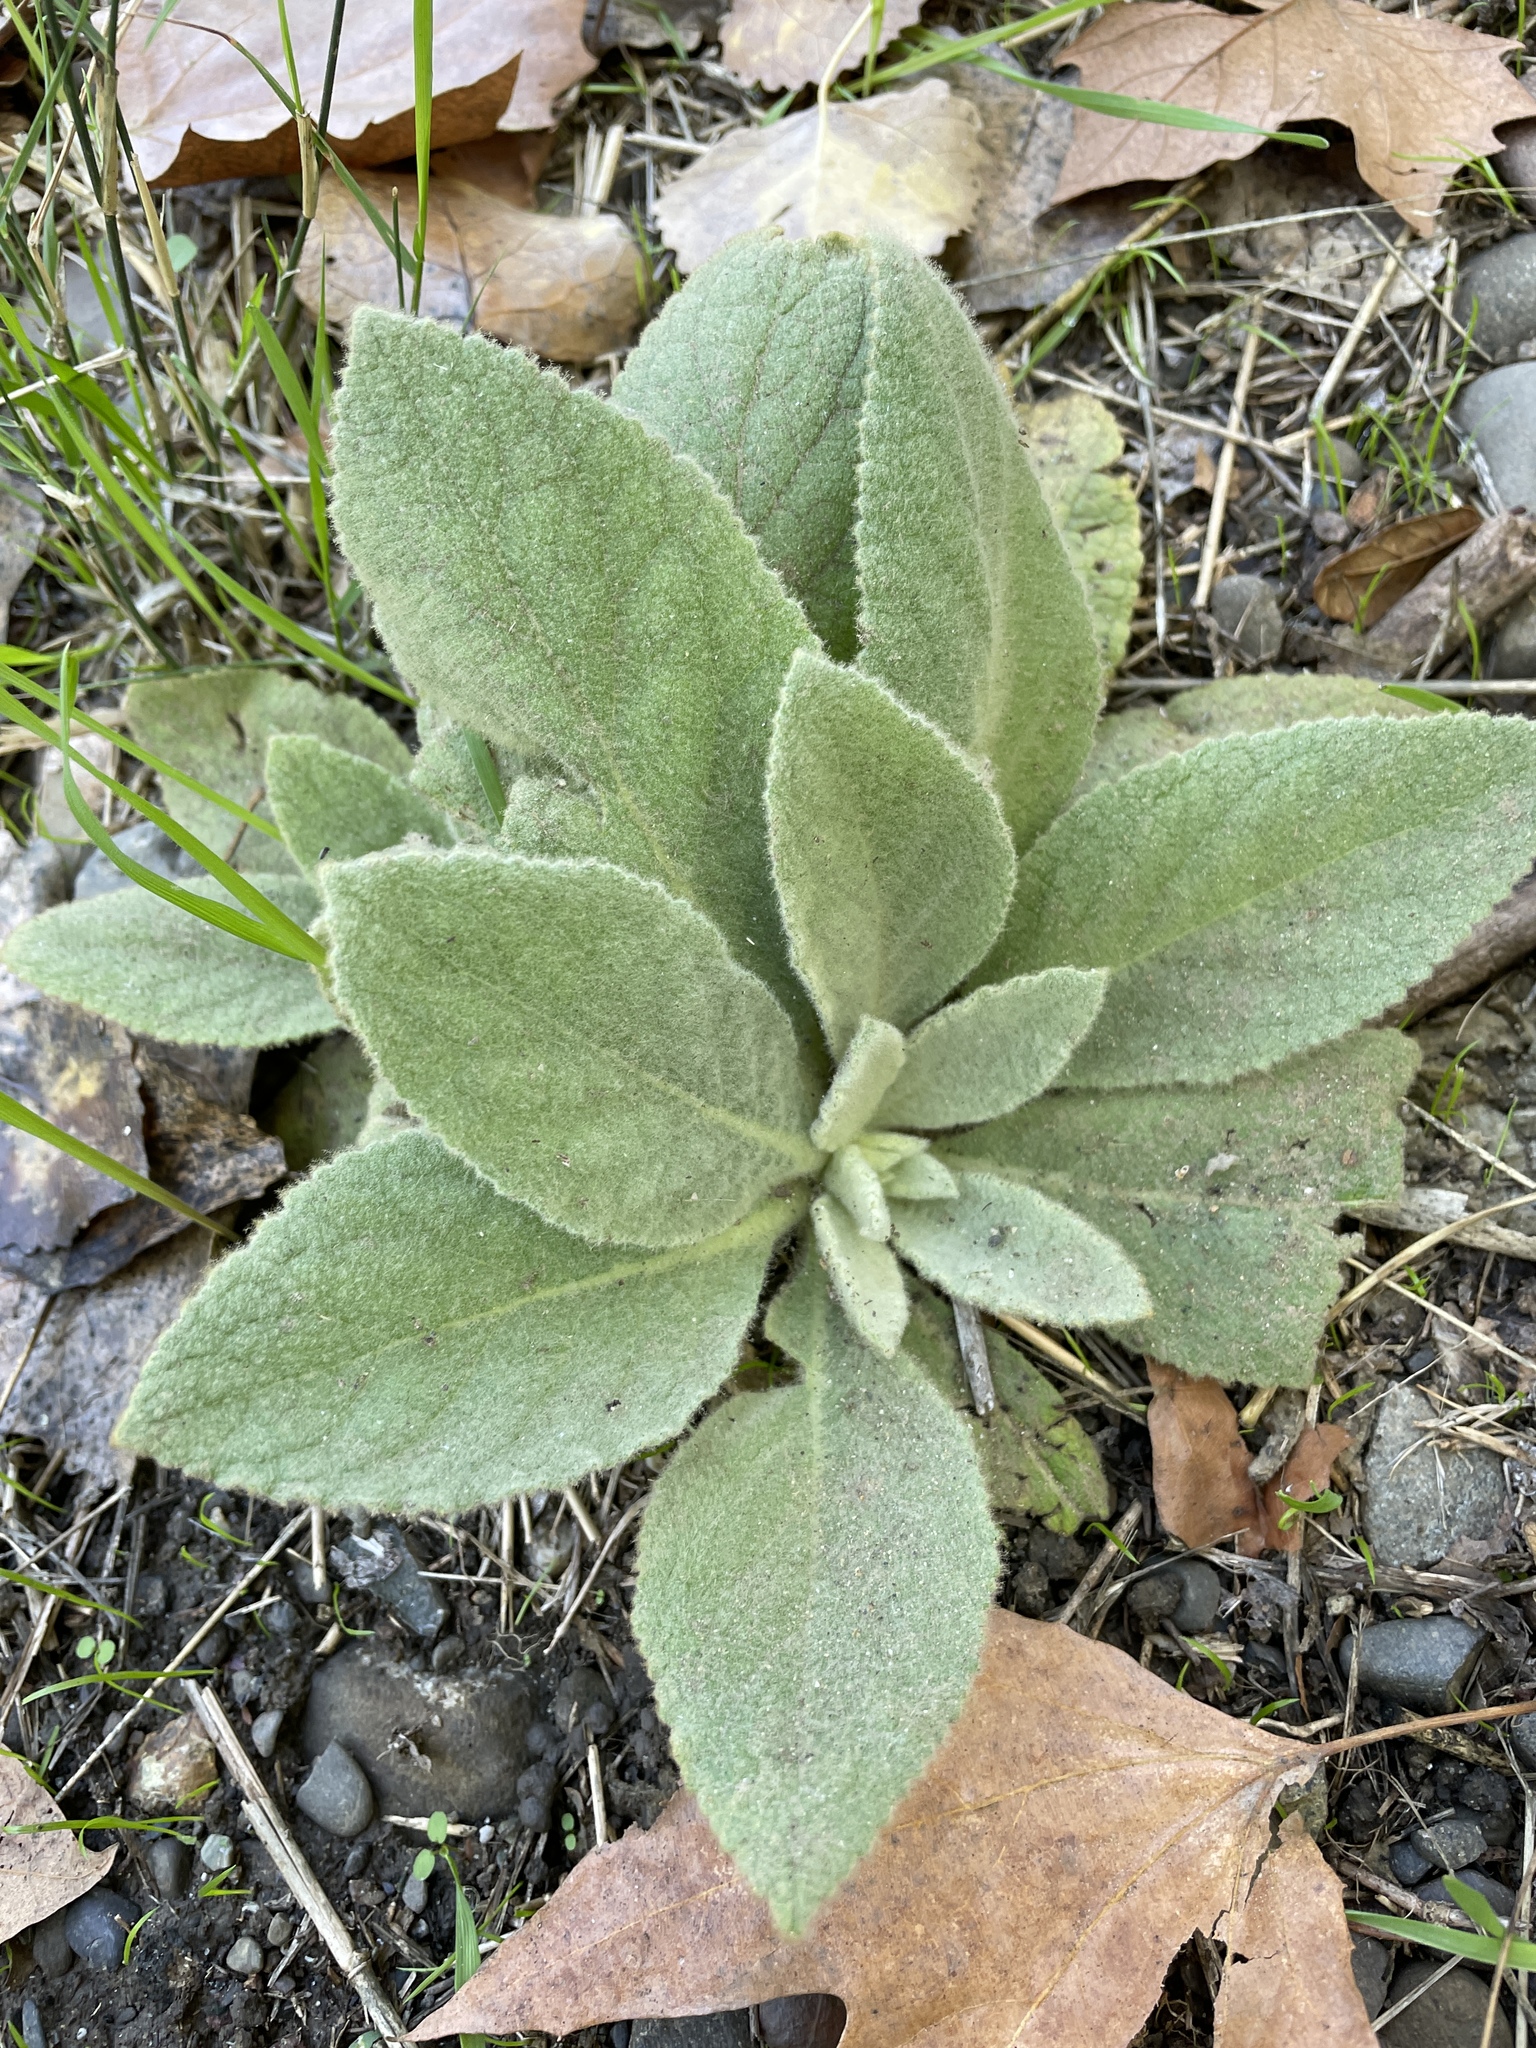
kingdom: Plantae
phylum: Tracheophyta
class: Magnoliopsida
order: Lamiales
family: Scrophulariaceae
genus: Verbascum
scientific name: Verbascum thapsus
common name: Common mullein
